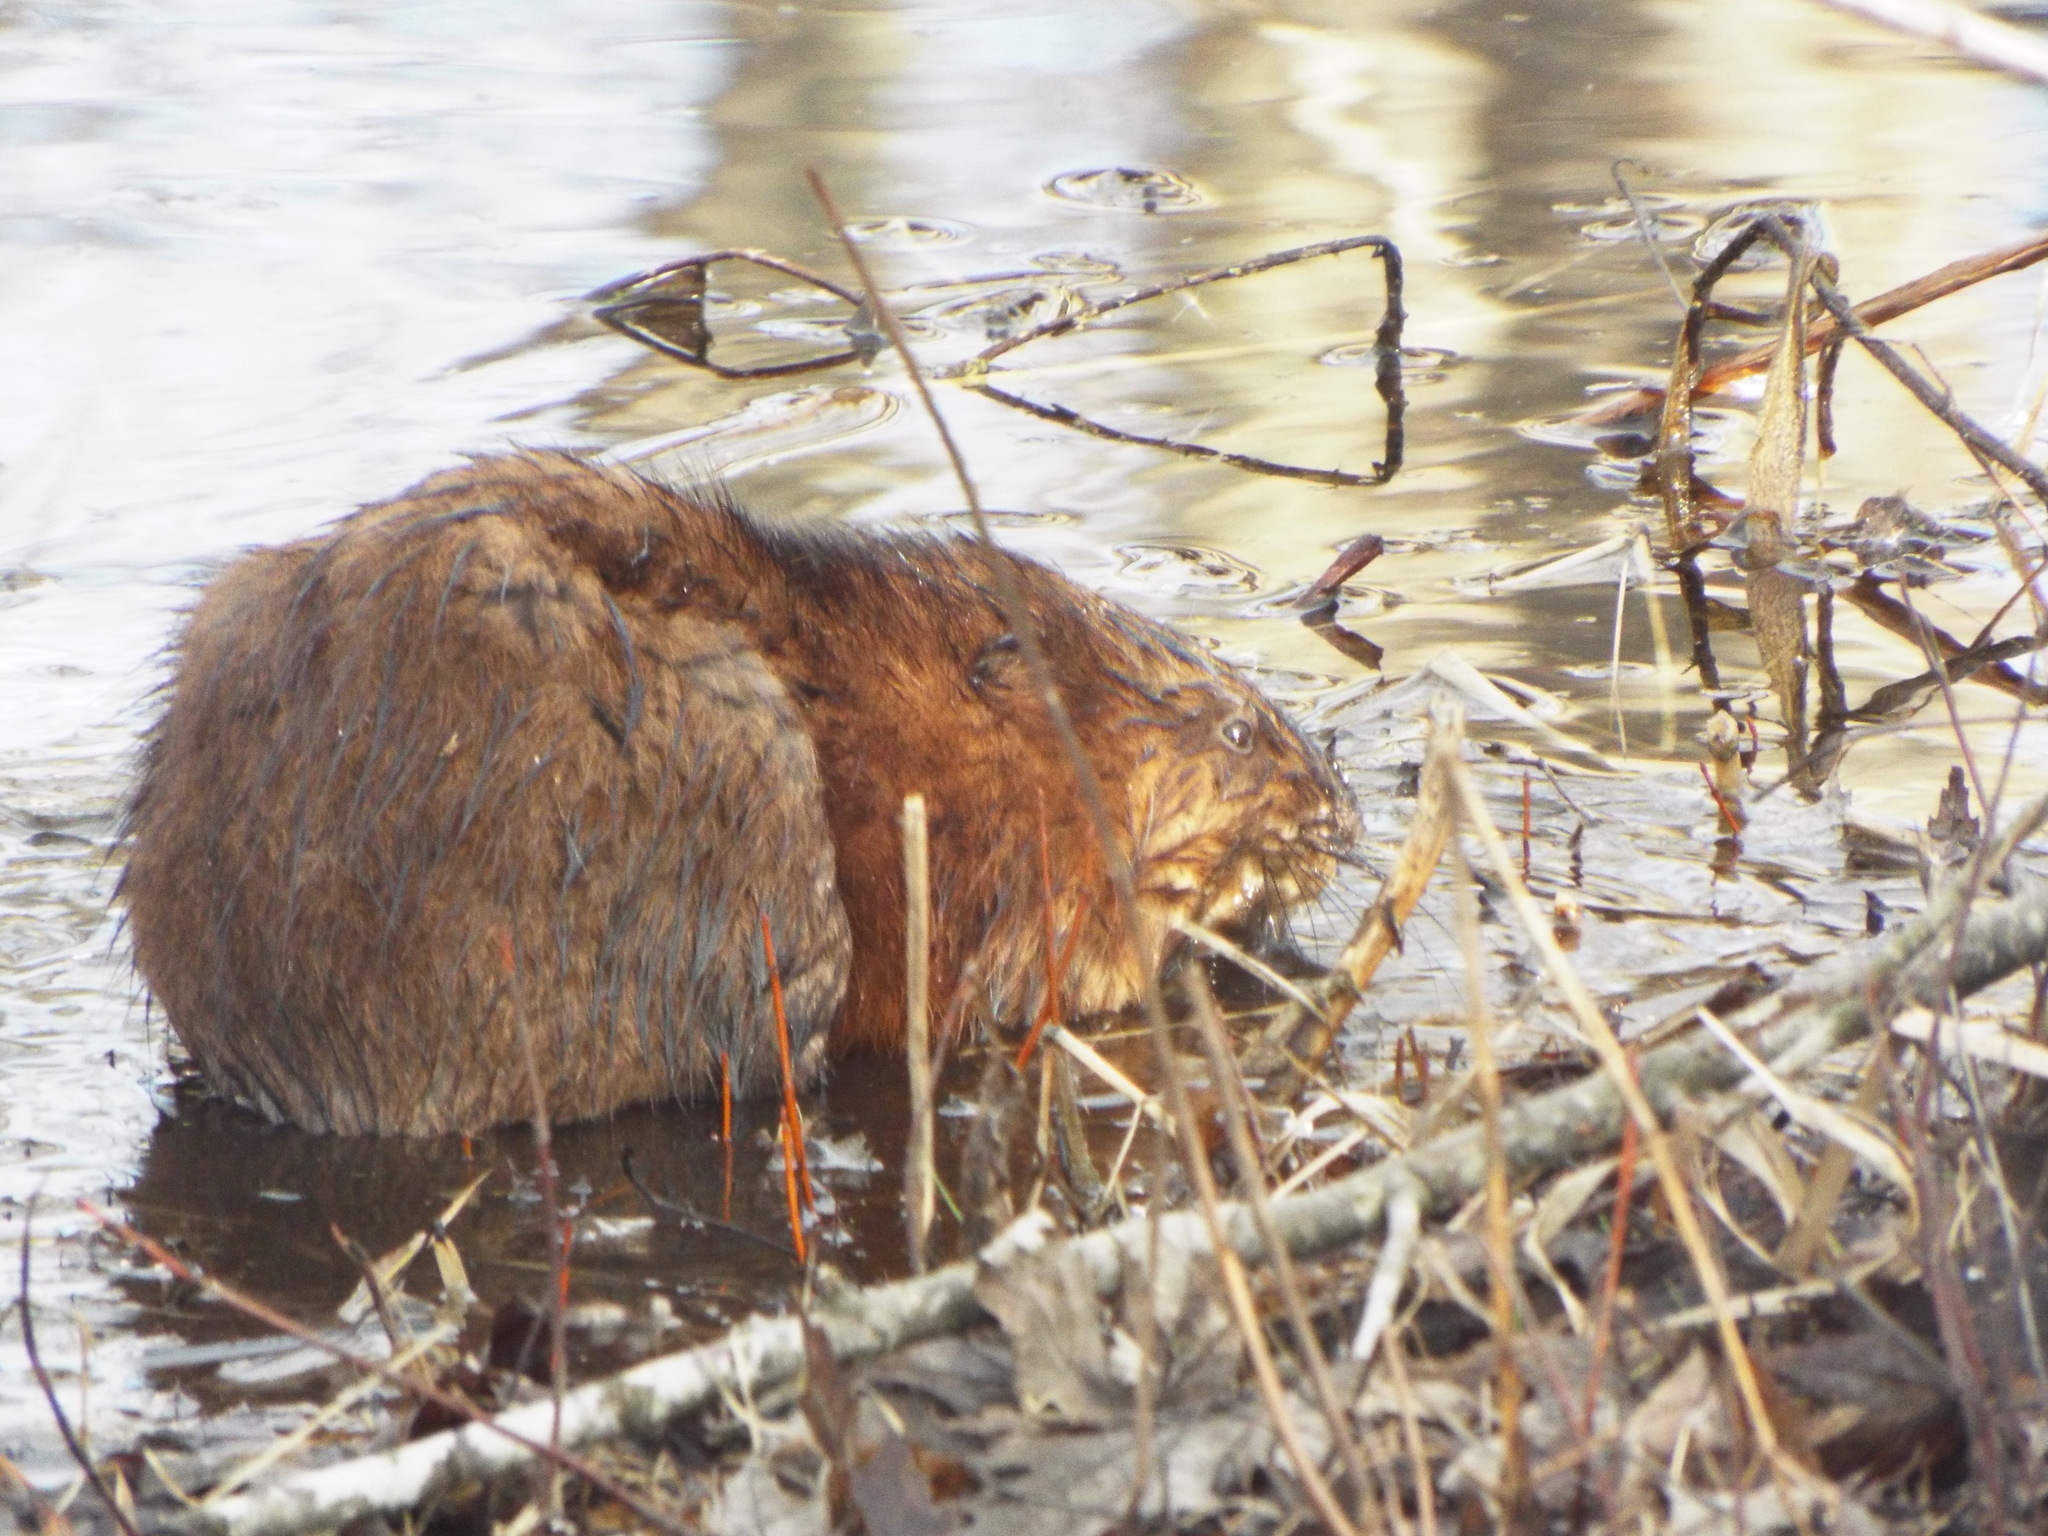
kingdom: Animalia
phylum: Chordata
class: Mammalia
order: Rodentia
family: Cricetidae
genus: Ondatra
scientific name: Ondatra zibethicus
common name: Muskrat
